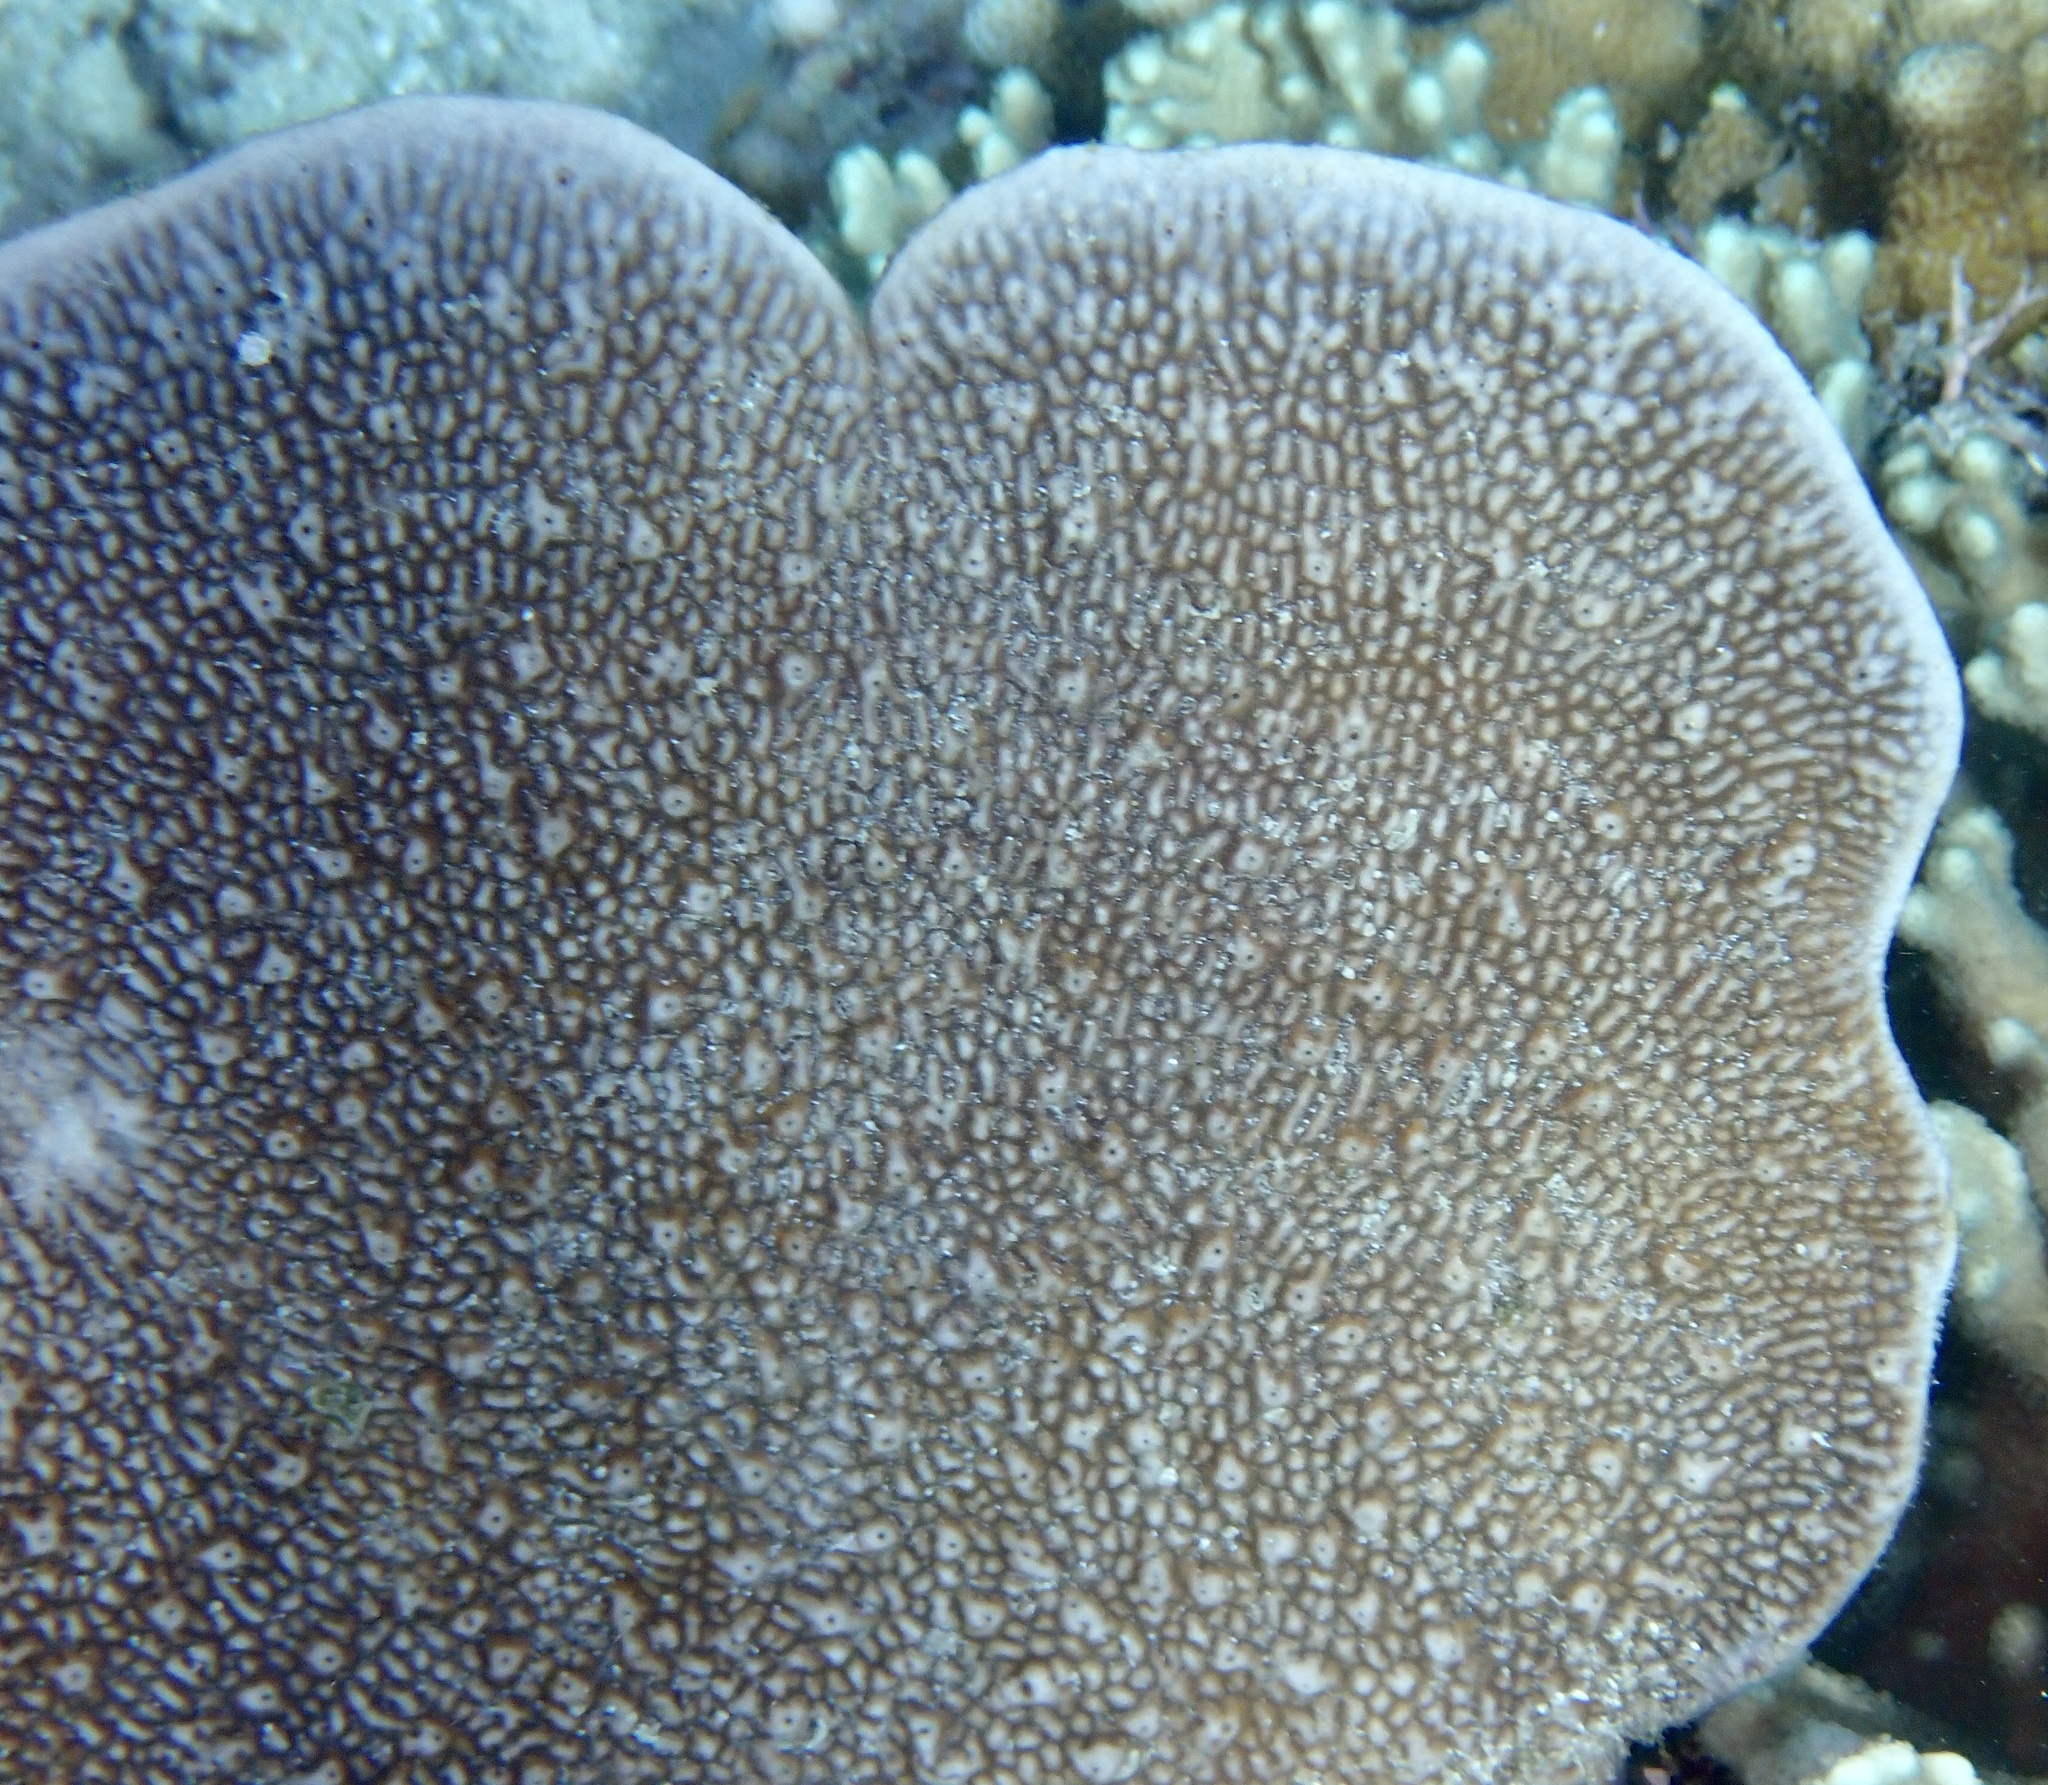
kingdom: Animalia
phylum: Porifera
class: Demospongiae
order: Dictyoceratida
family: Thorectidae
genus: Phyllospongia
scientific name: Phyllospongia foliascens
